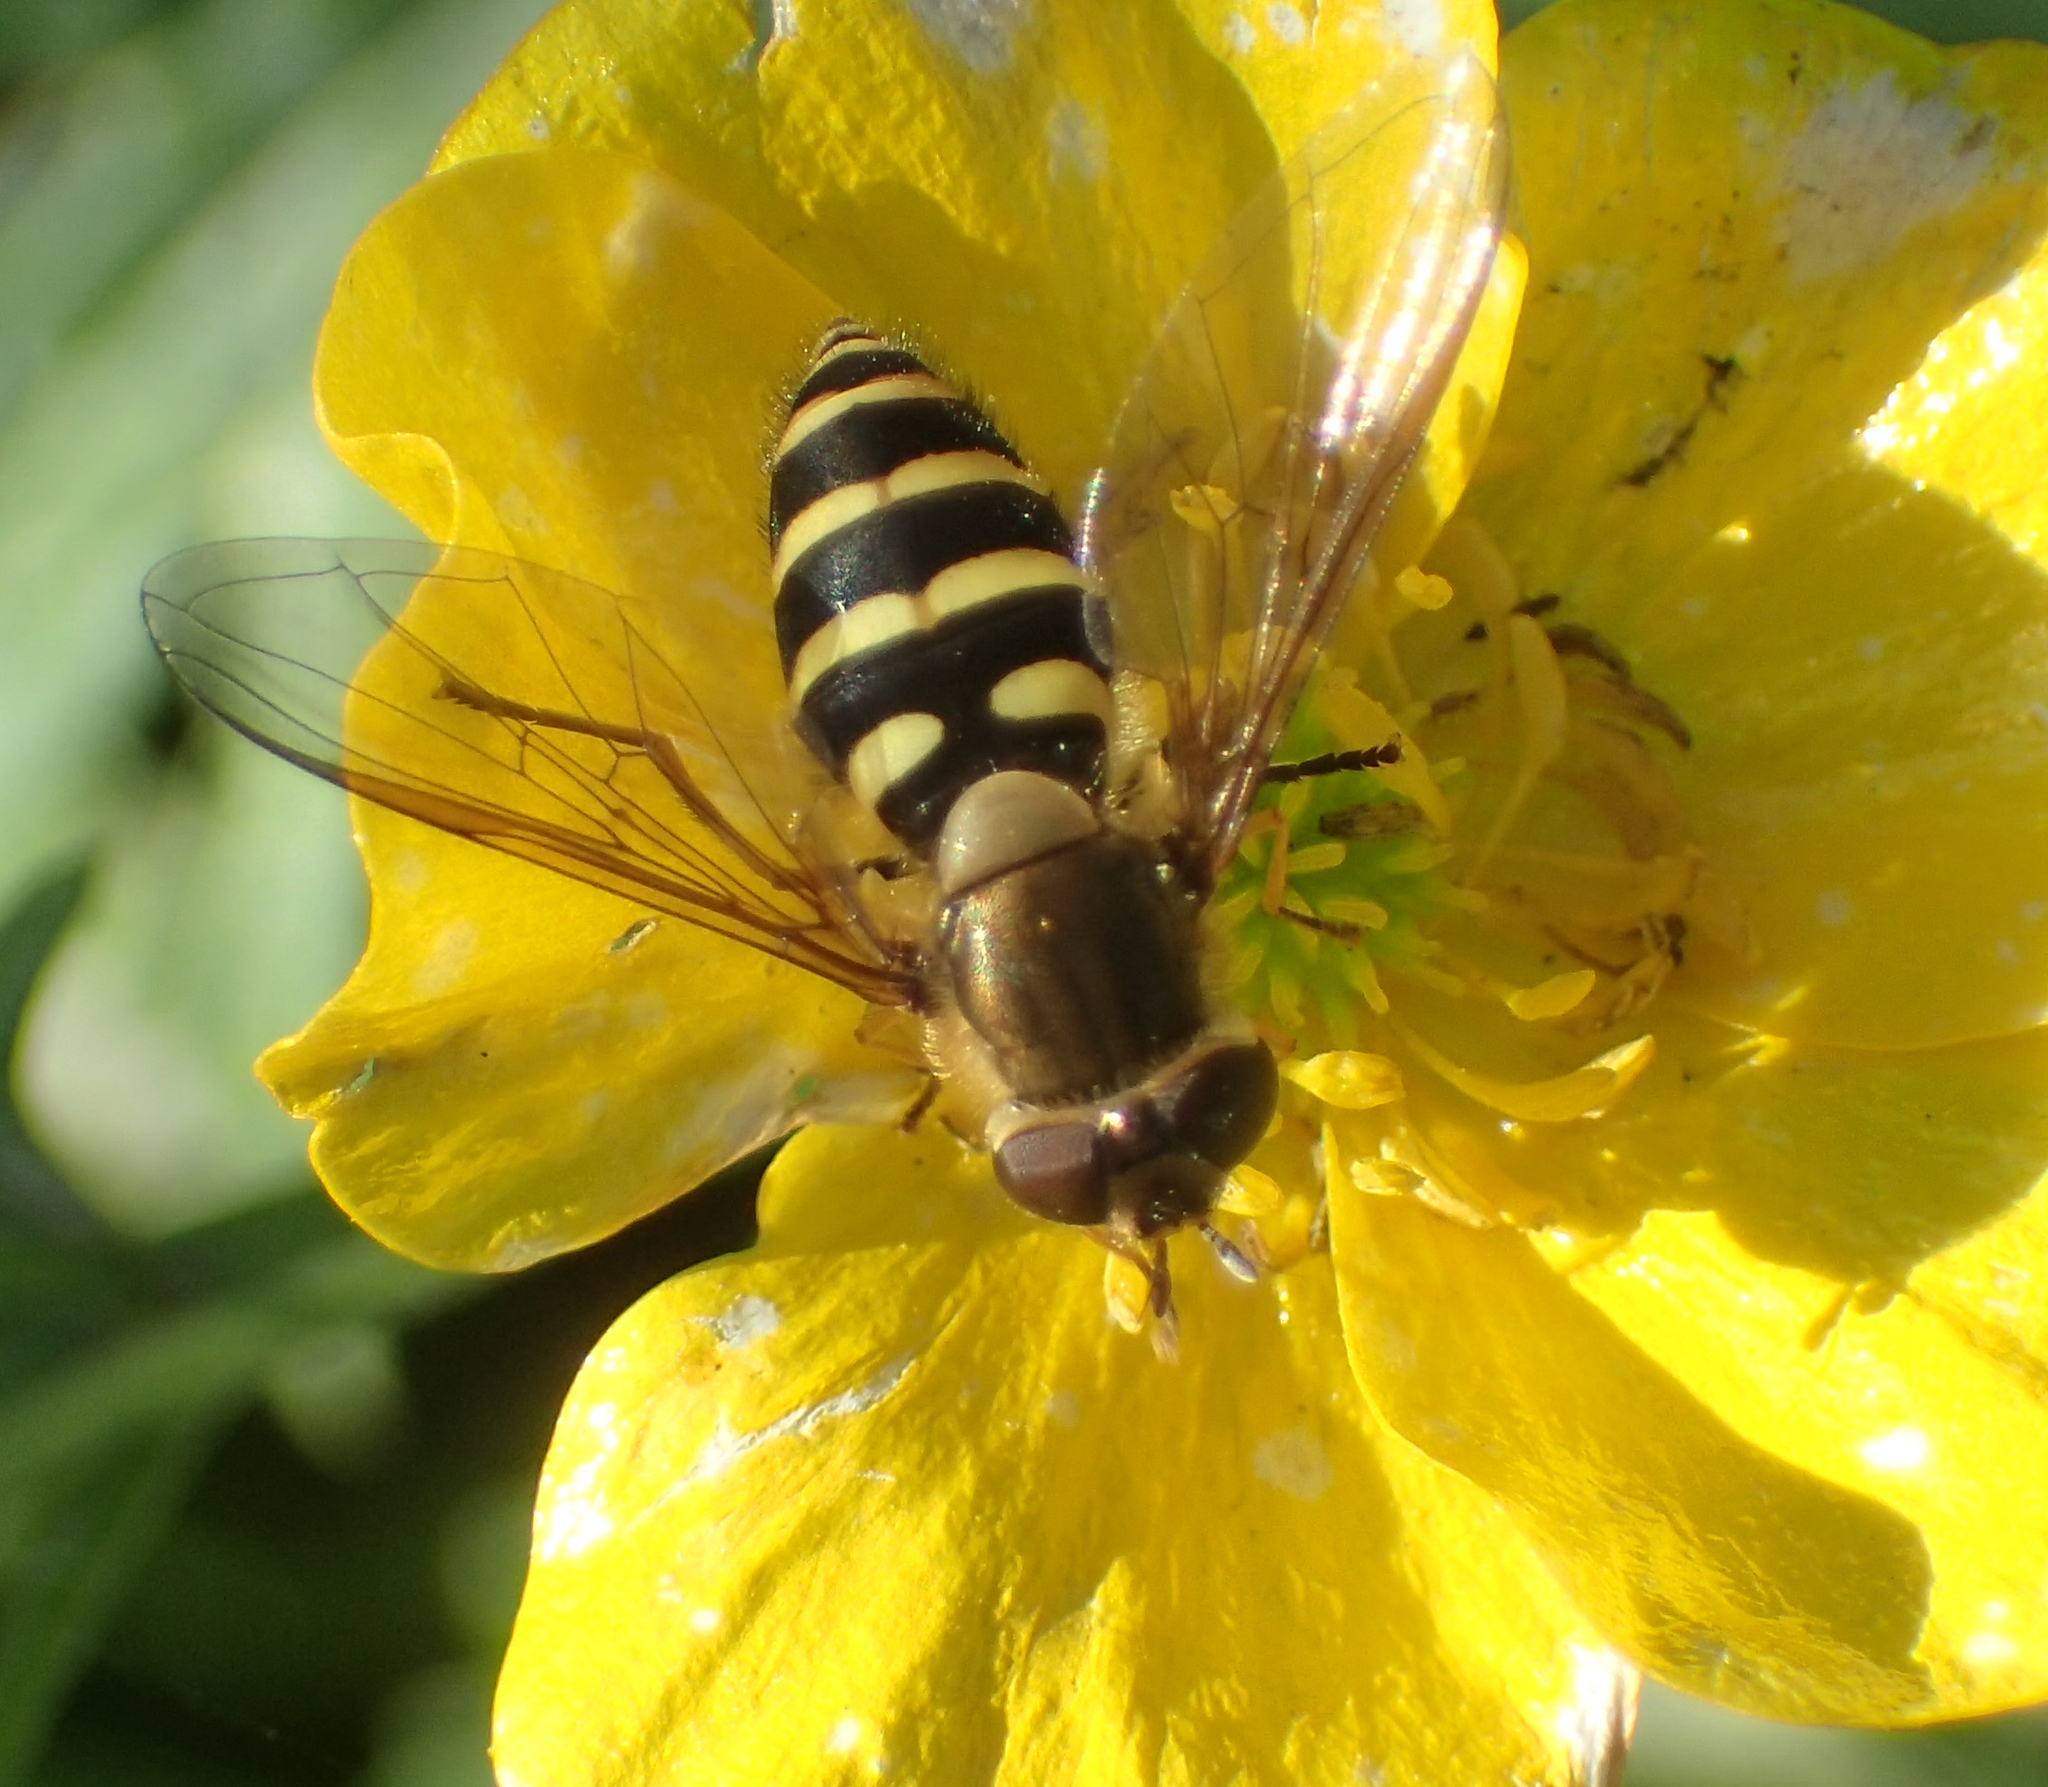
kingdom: Animalia
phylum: Arthropoda
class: Insecta
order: Diptera
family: Syrphidae
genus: Syrphus
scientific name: Syrphus torvus
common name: Hairy-eyed flower fly
